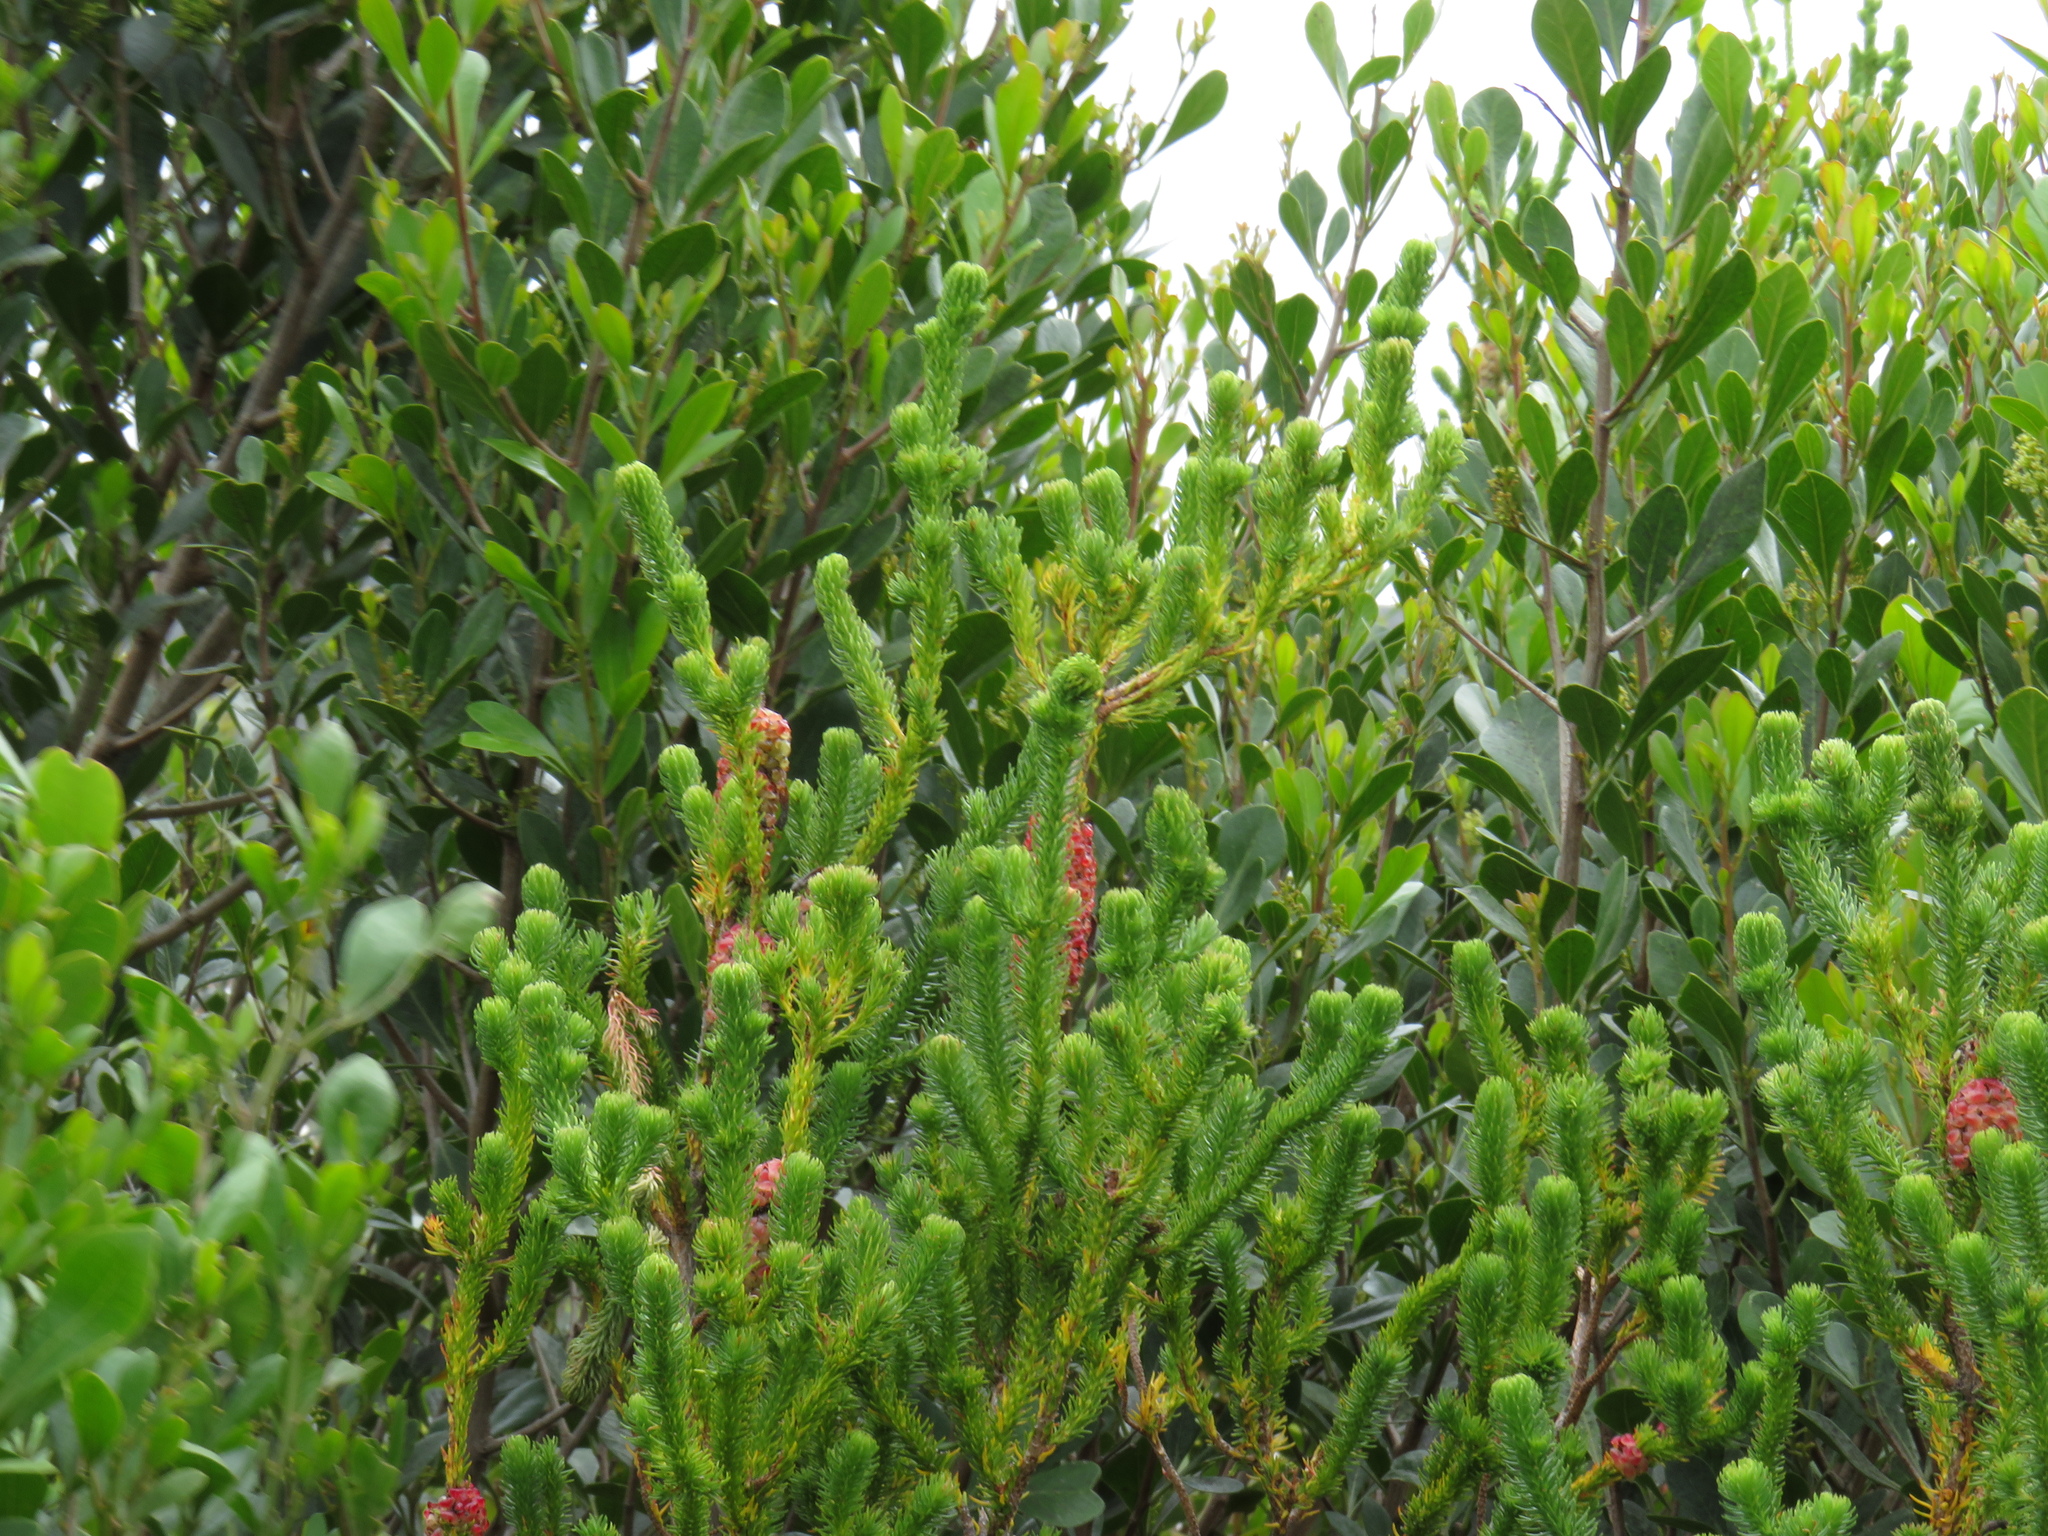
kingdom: Plantae
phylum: Tracheophyta
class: Magnoliopsida
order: Ericales
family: Ericaceae
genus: Erica
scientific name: Erica sessiliflora
